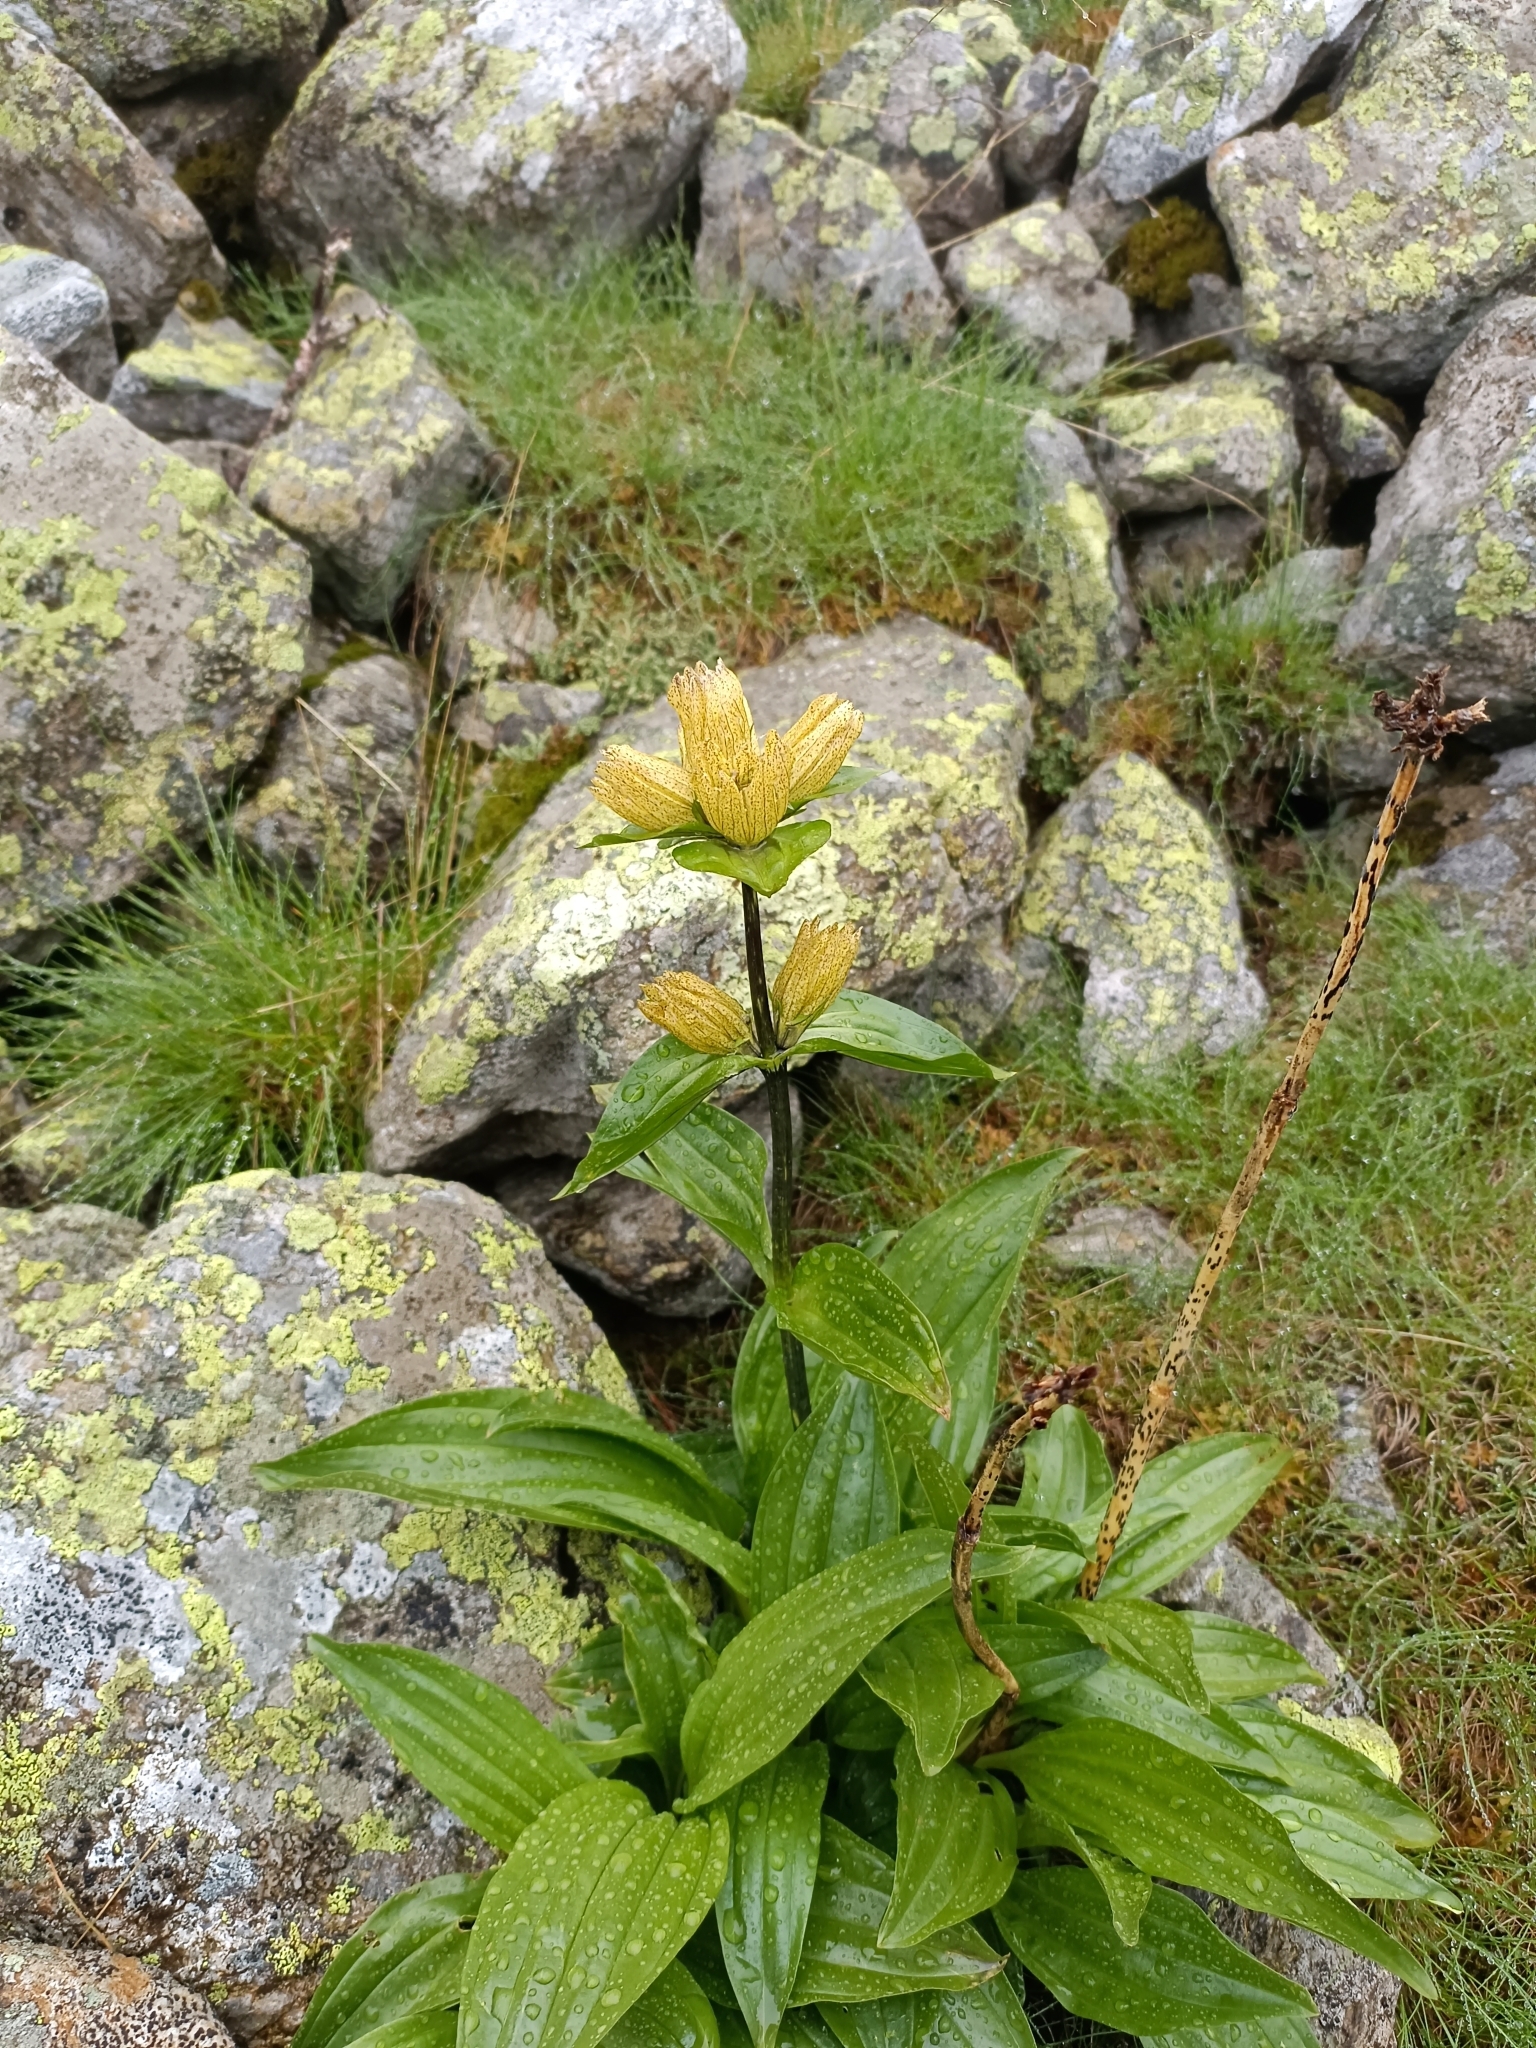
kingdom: Plantae
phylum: Tracheophyta
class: Magnoliopsida
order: Gentianales
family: Gentianaceae
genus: Gentiana
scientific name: Gentiana punctata
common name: Spotted gentian
